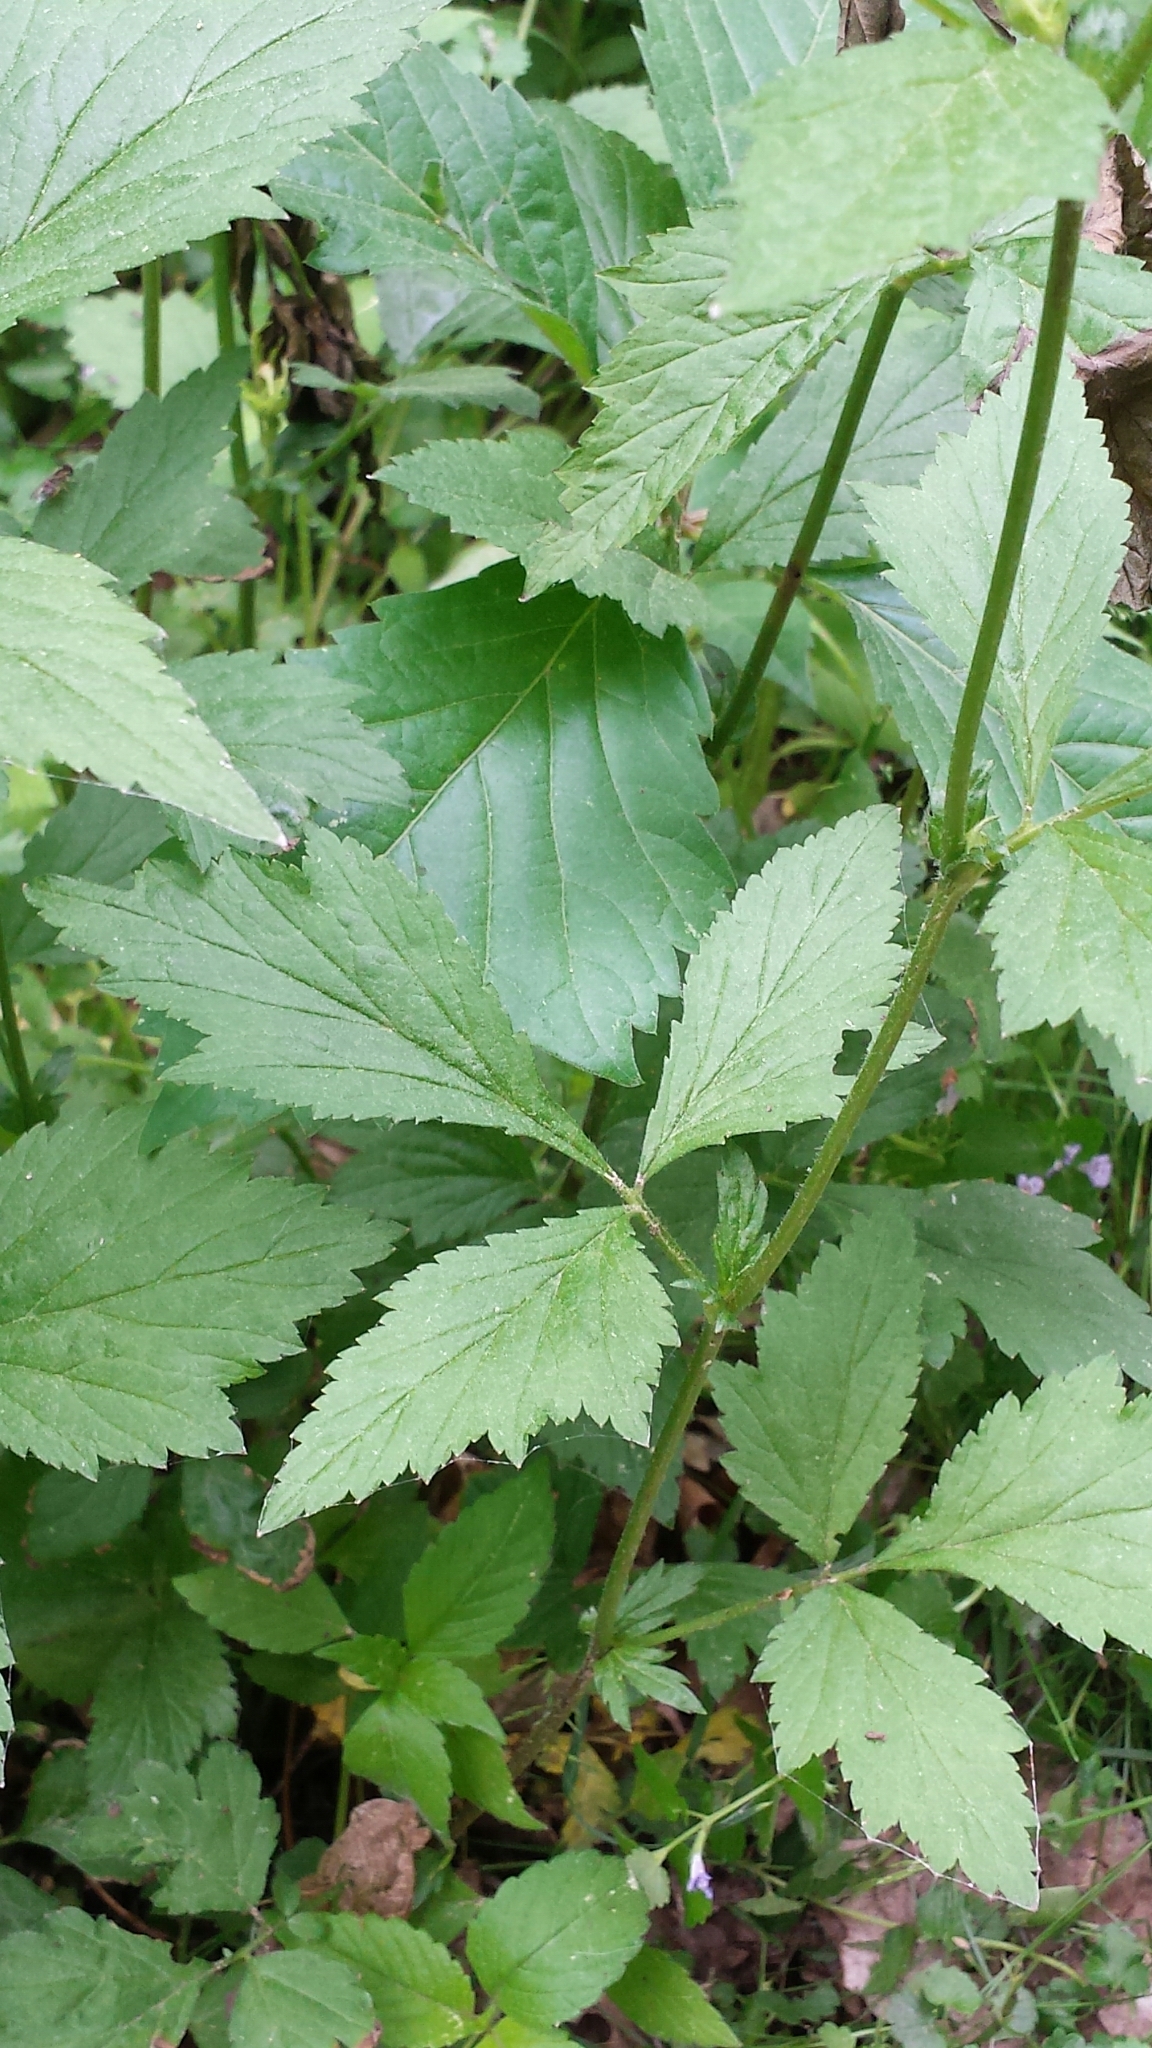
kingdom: Plantae
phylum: Tracheophyta
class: Magnoliopsida
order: Rosales
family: Rosaceae
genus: Geum
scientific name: Geum canadense
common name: White avens
